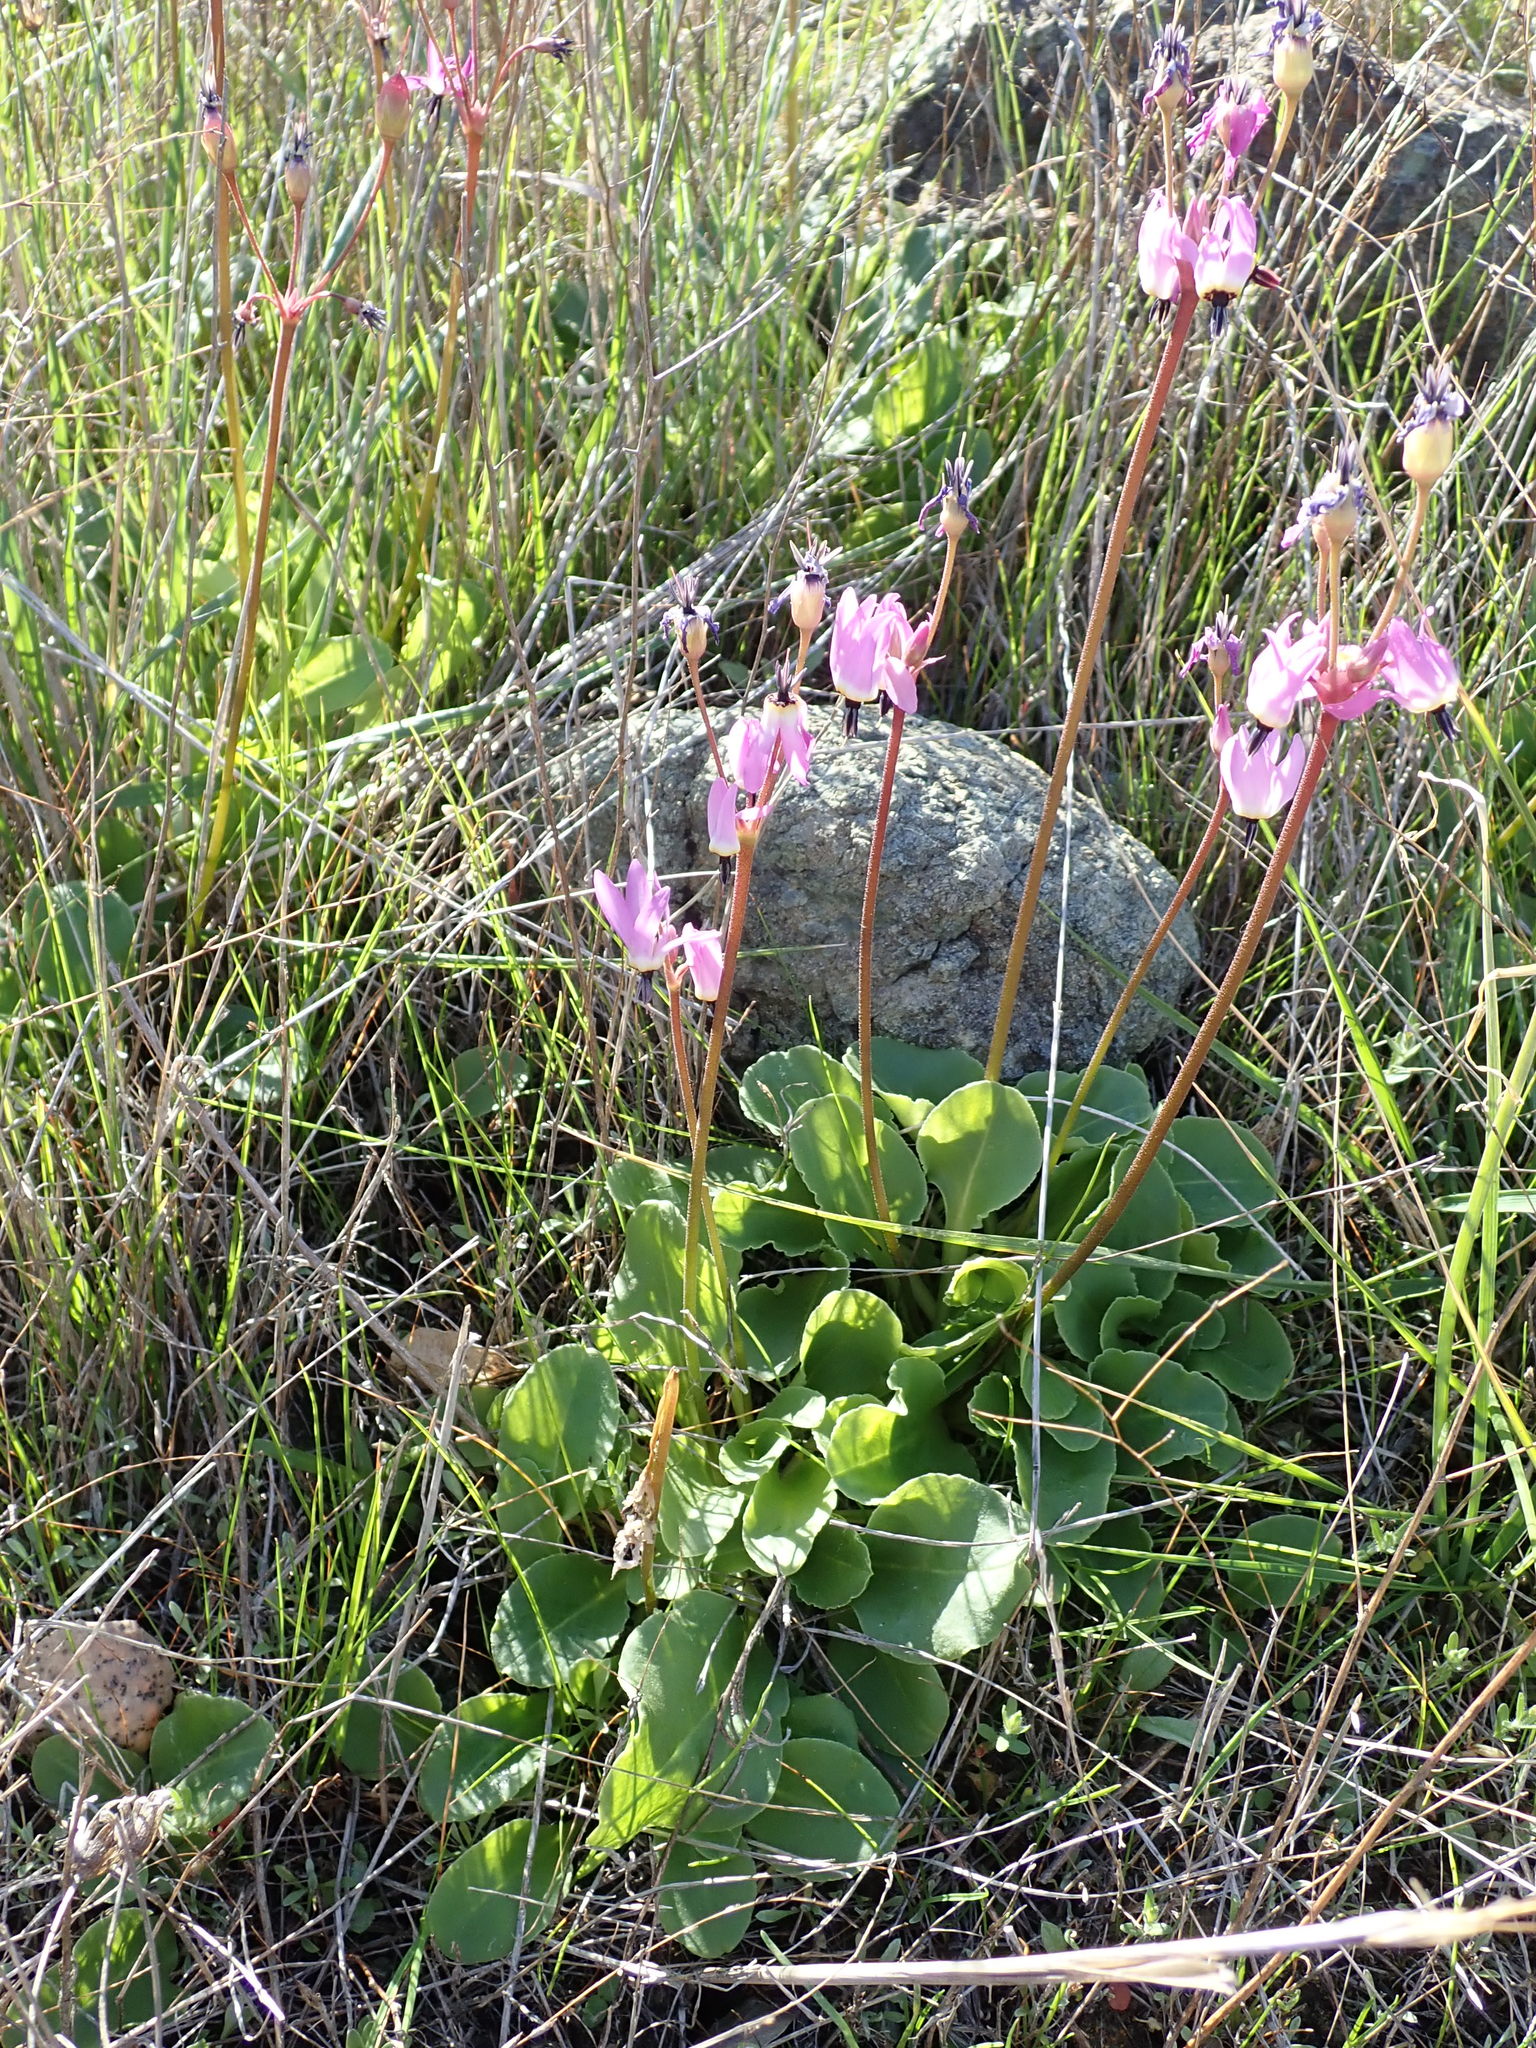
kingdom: Plantae
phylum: Tracheophyta
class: Magnoliopsida
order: Ericales
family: Primulaceae
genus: Dodecatheon
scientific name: Dodecatheon hendersonii
